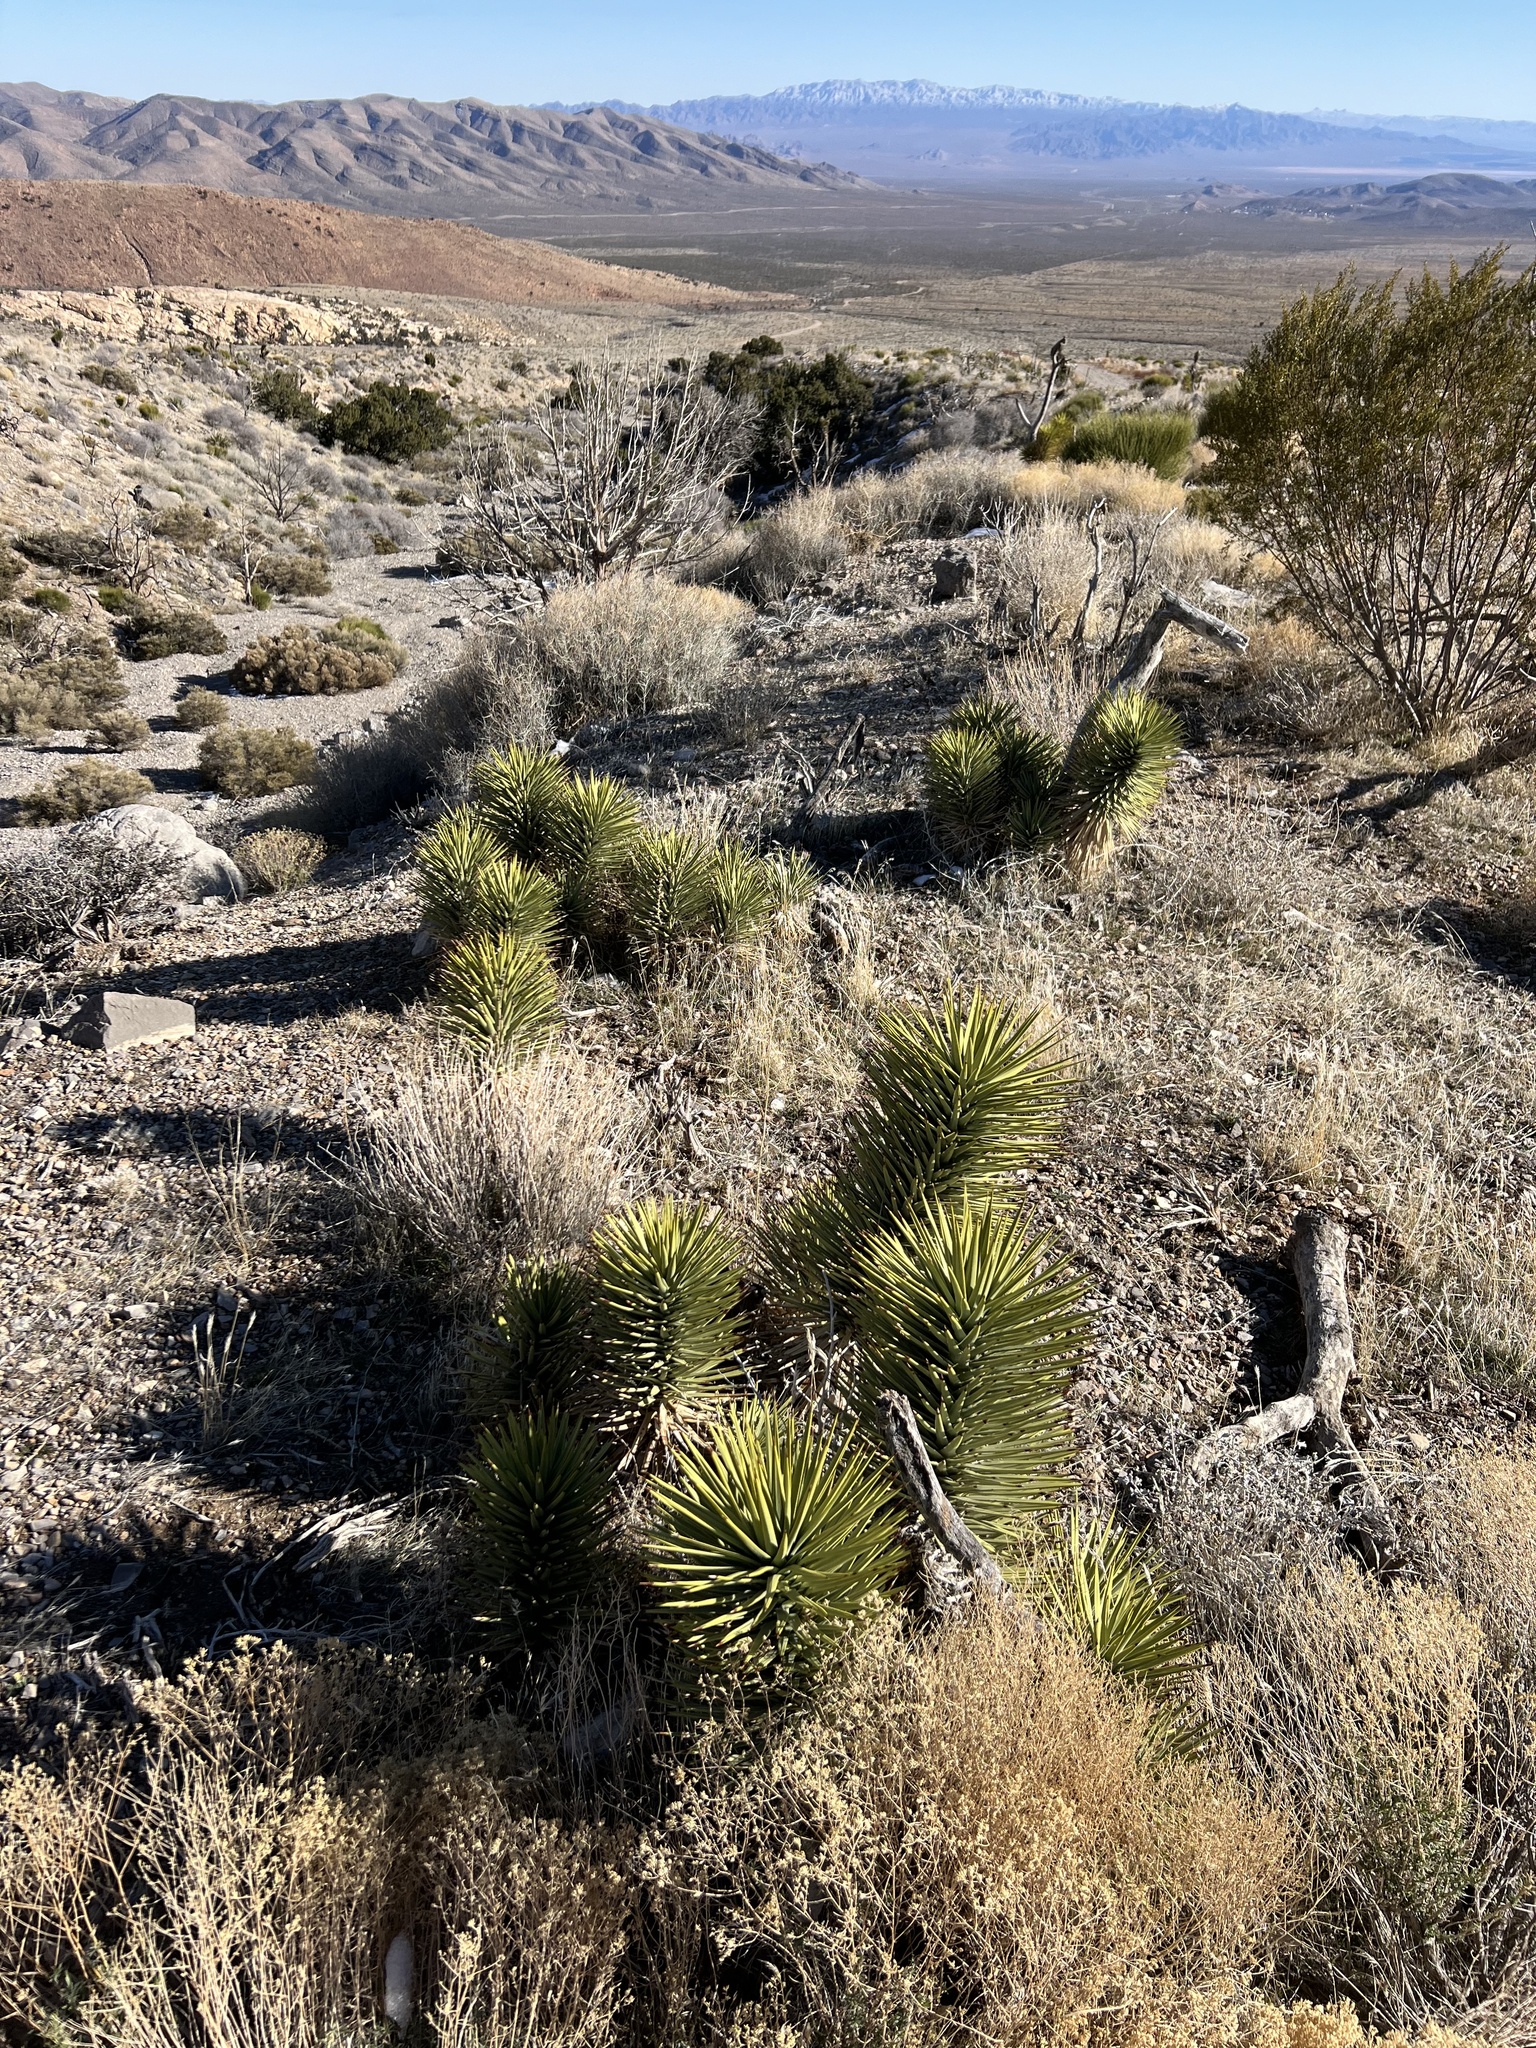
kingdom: Plantae
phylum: Tracheophyta
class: Liliopsida
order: Asparagales
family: Asparagaceae
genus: Yucca
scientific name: Yucca brevifolia
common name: Joshua tree
